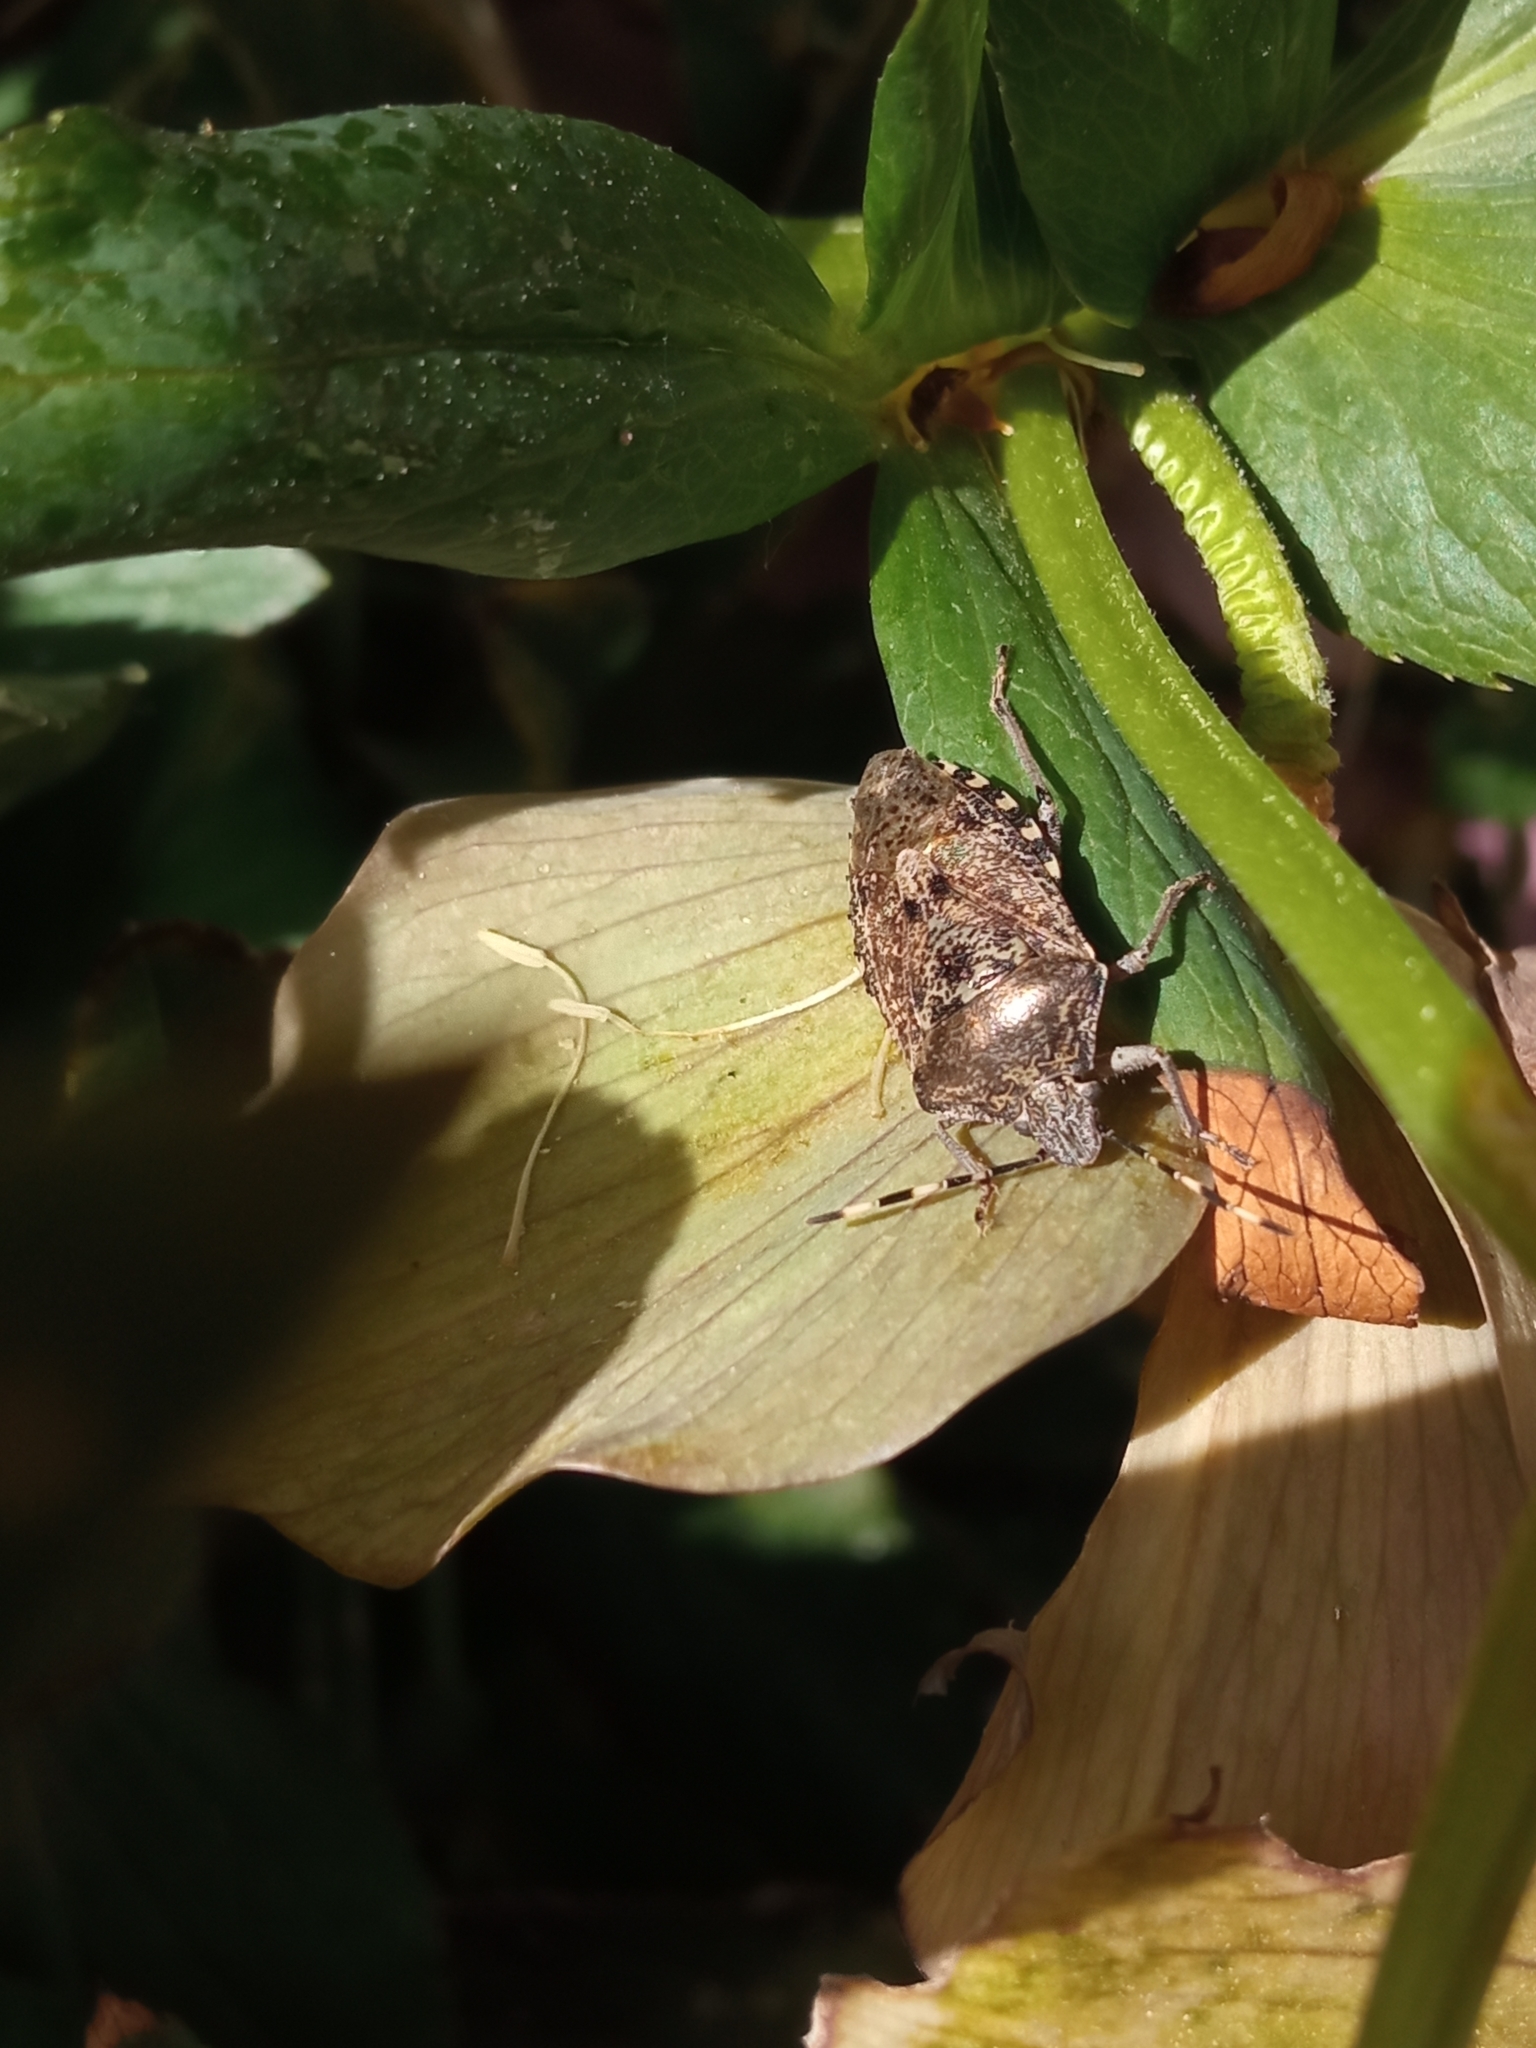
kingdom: Animalia
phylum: Arthropoda
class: Insecta
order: Hemiptera
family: Pentatomidae
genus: Rhaphigaster
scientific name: Rhaphigaster nebulosa
